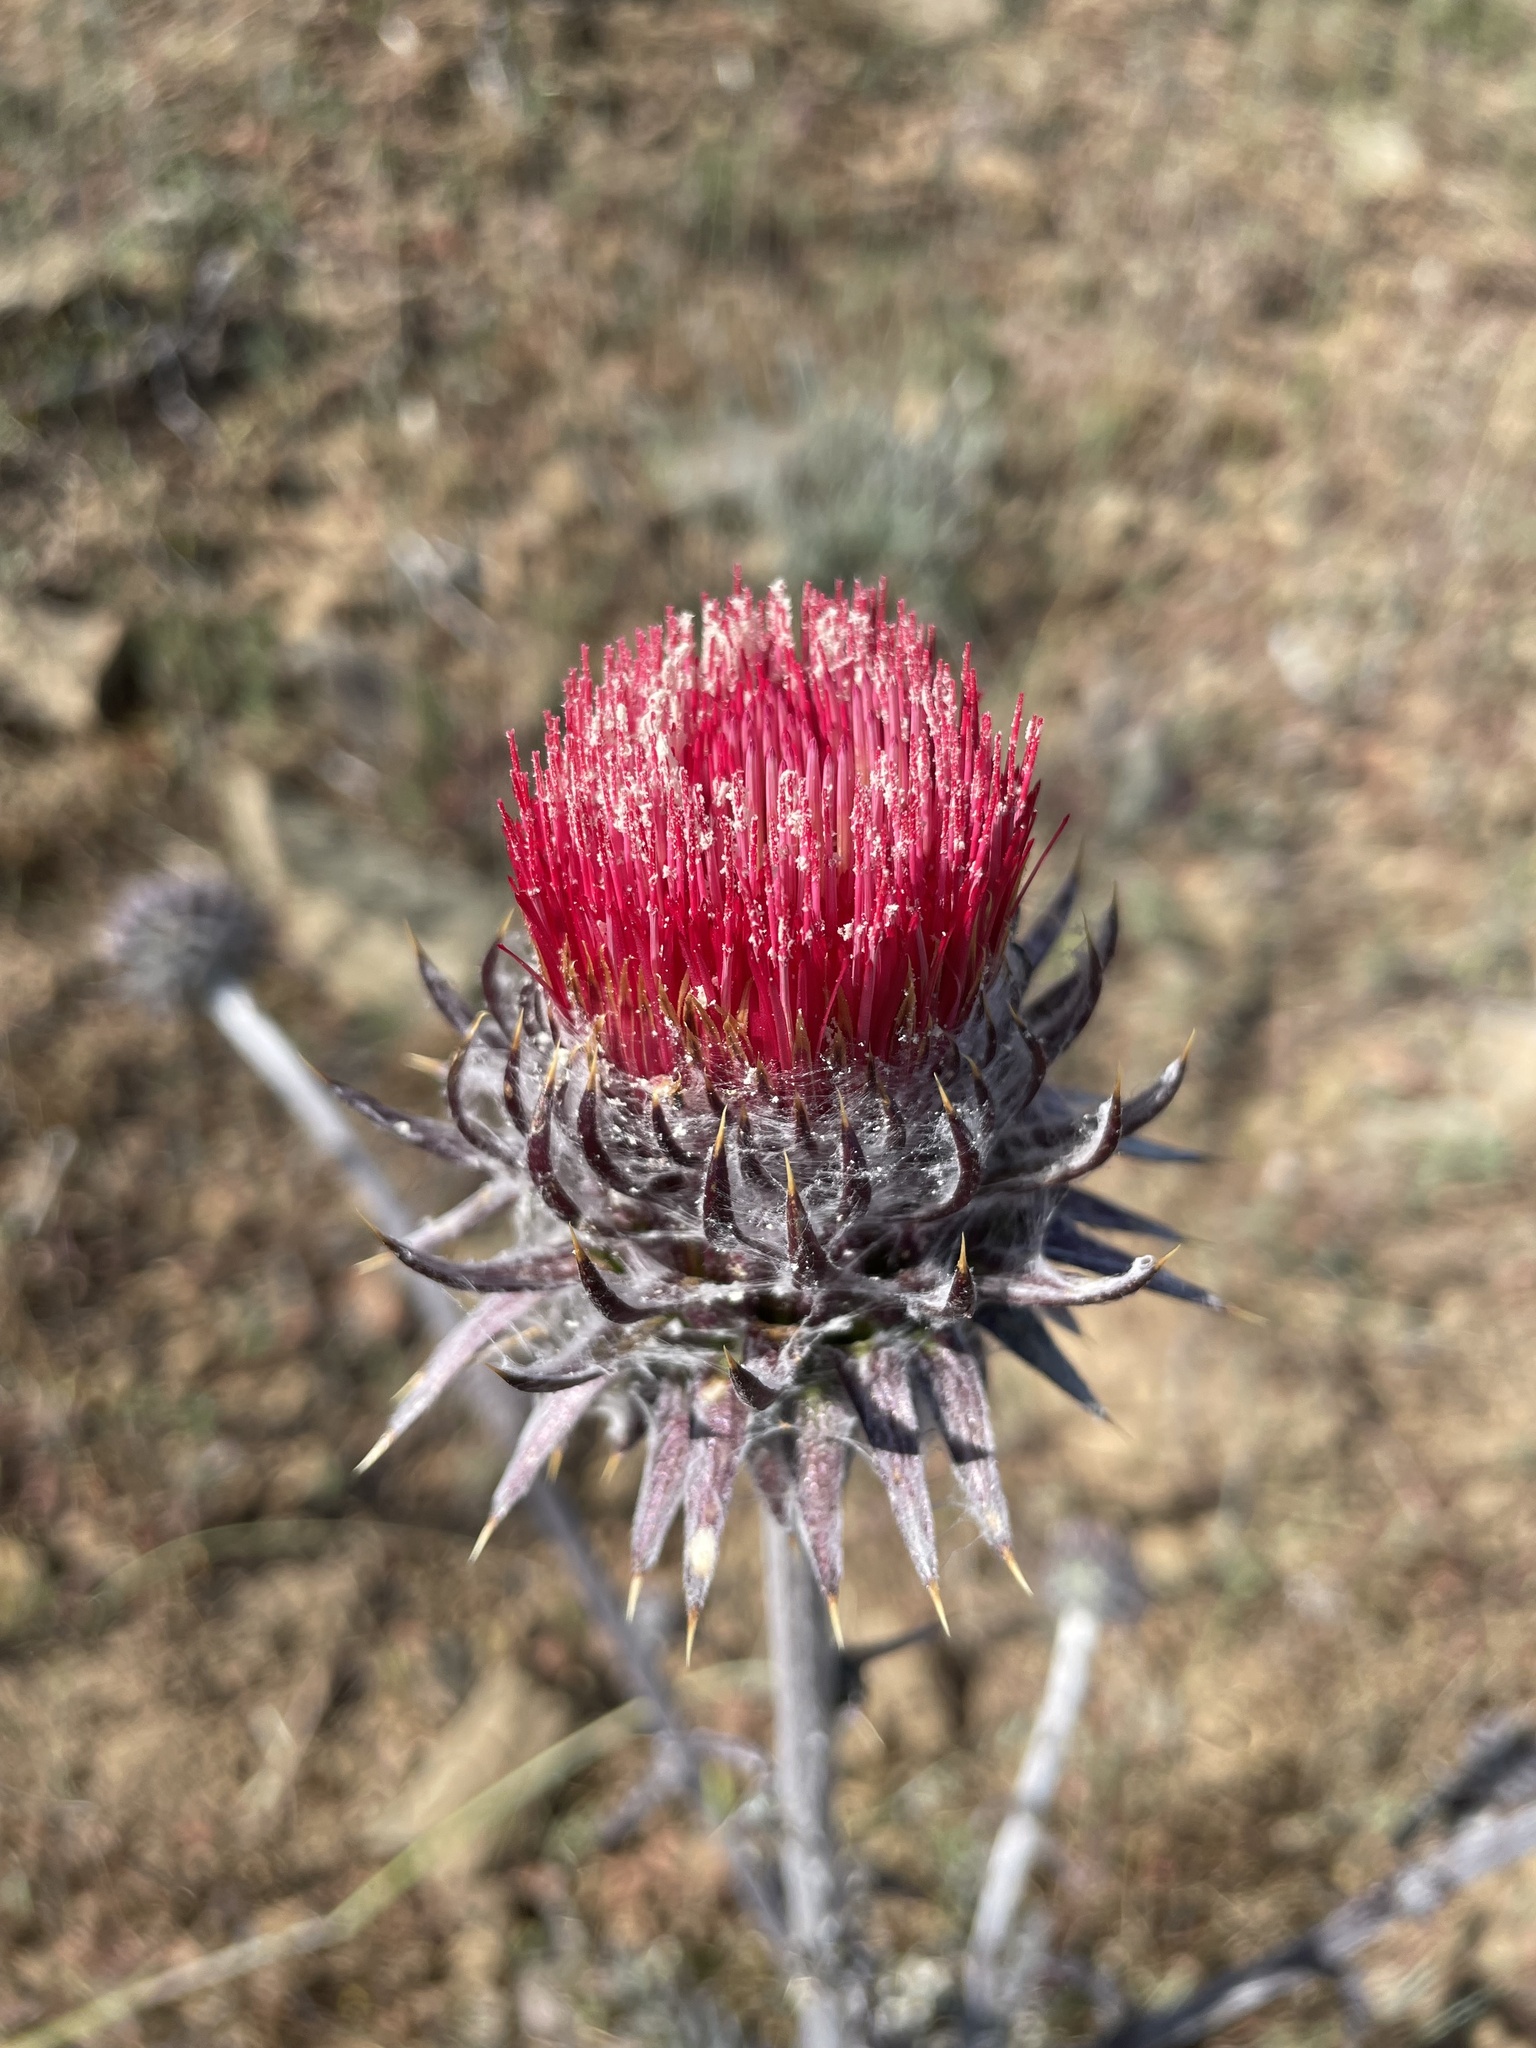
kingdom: Plantae
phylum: Tracheophyta
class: Magnoliopsida
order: Asterales
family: Asteraceae
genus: Cirsium
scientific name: Cirsium occidentale
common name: Western thistle
